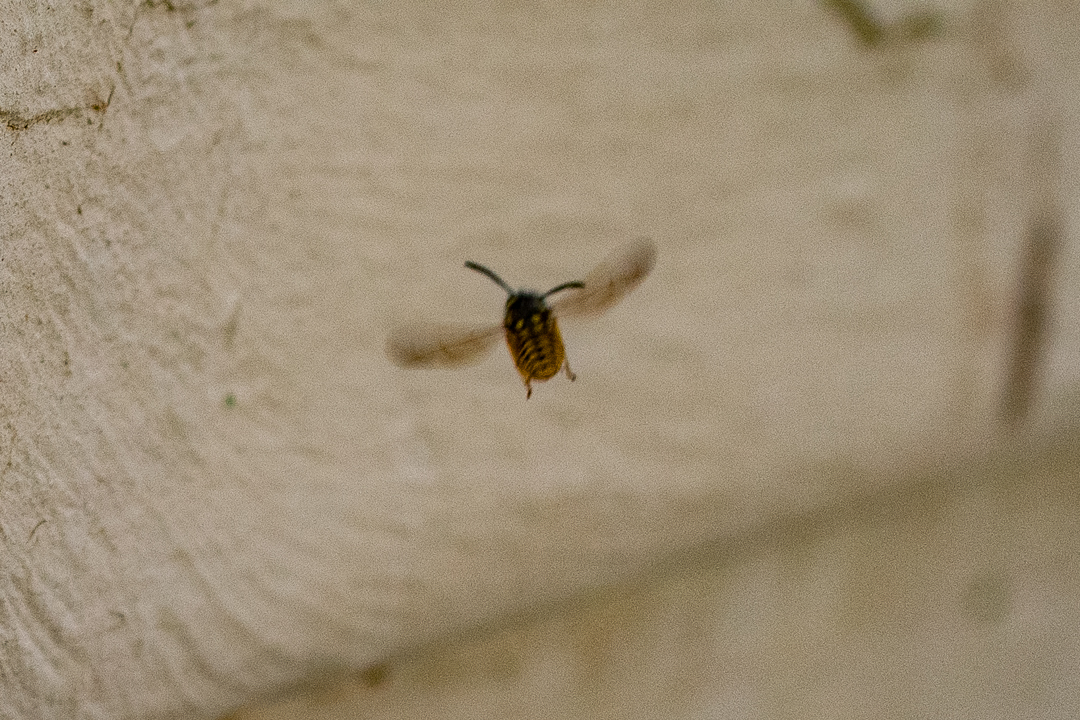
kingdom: Animalia
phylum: Arthropoda
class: Insecta
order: Hymenoptera
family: Vespidae
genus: Vespula
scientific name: Vespula germanica
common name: German wasp
